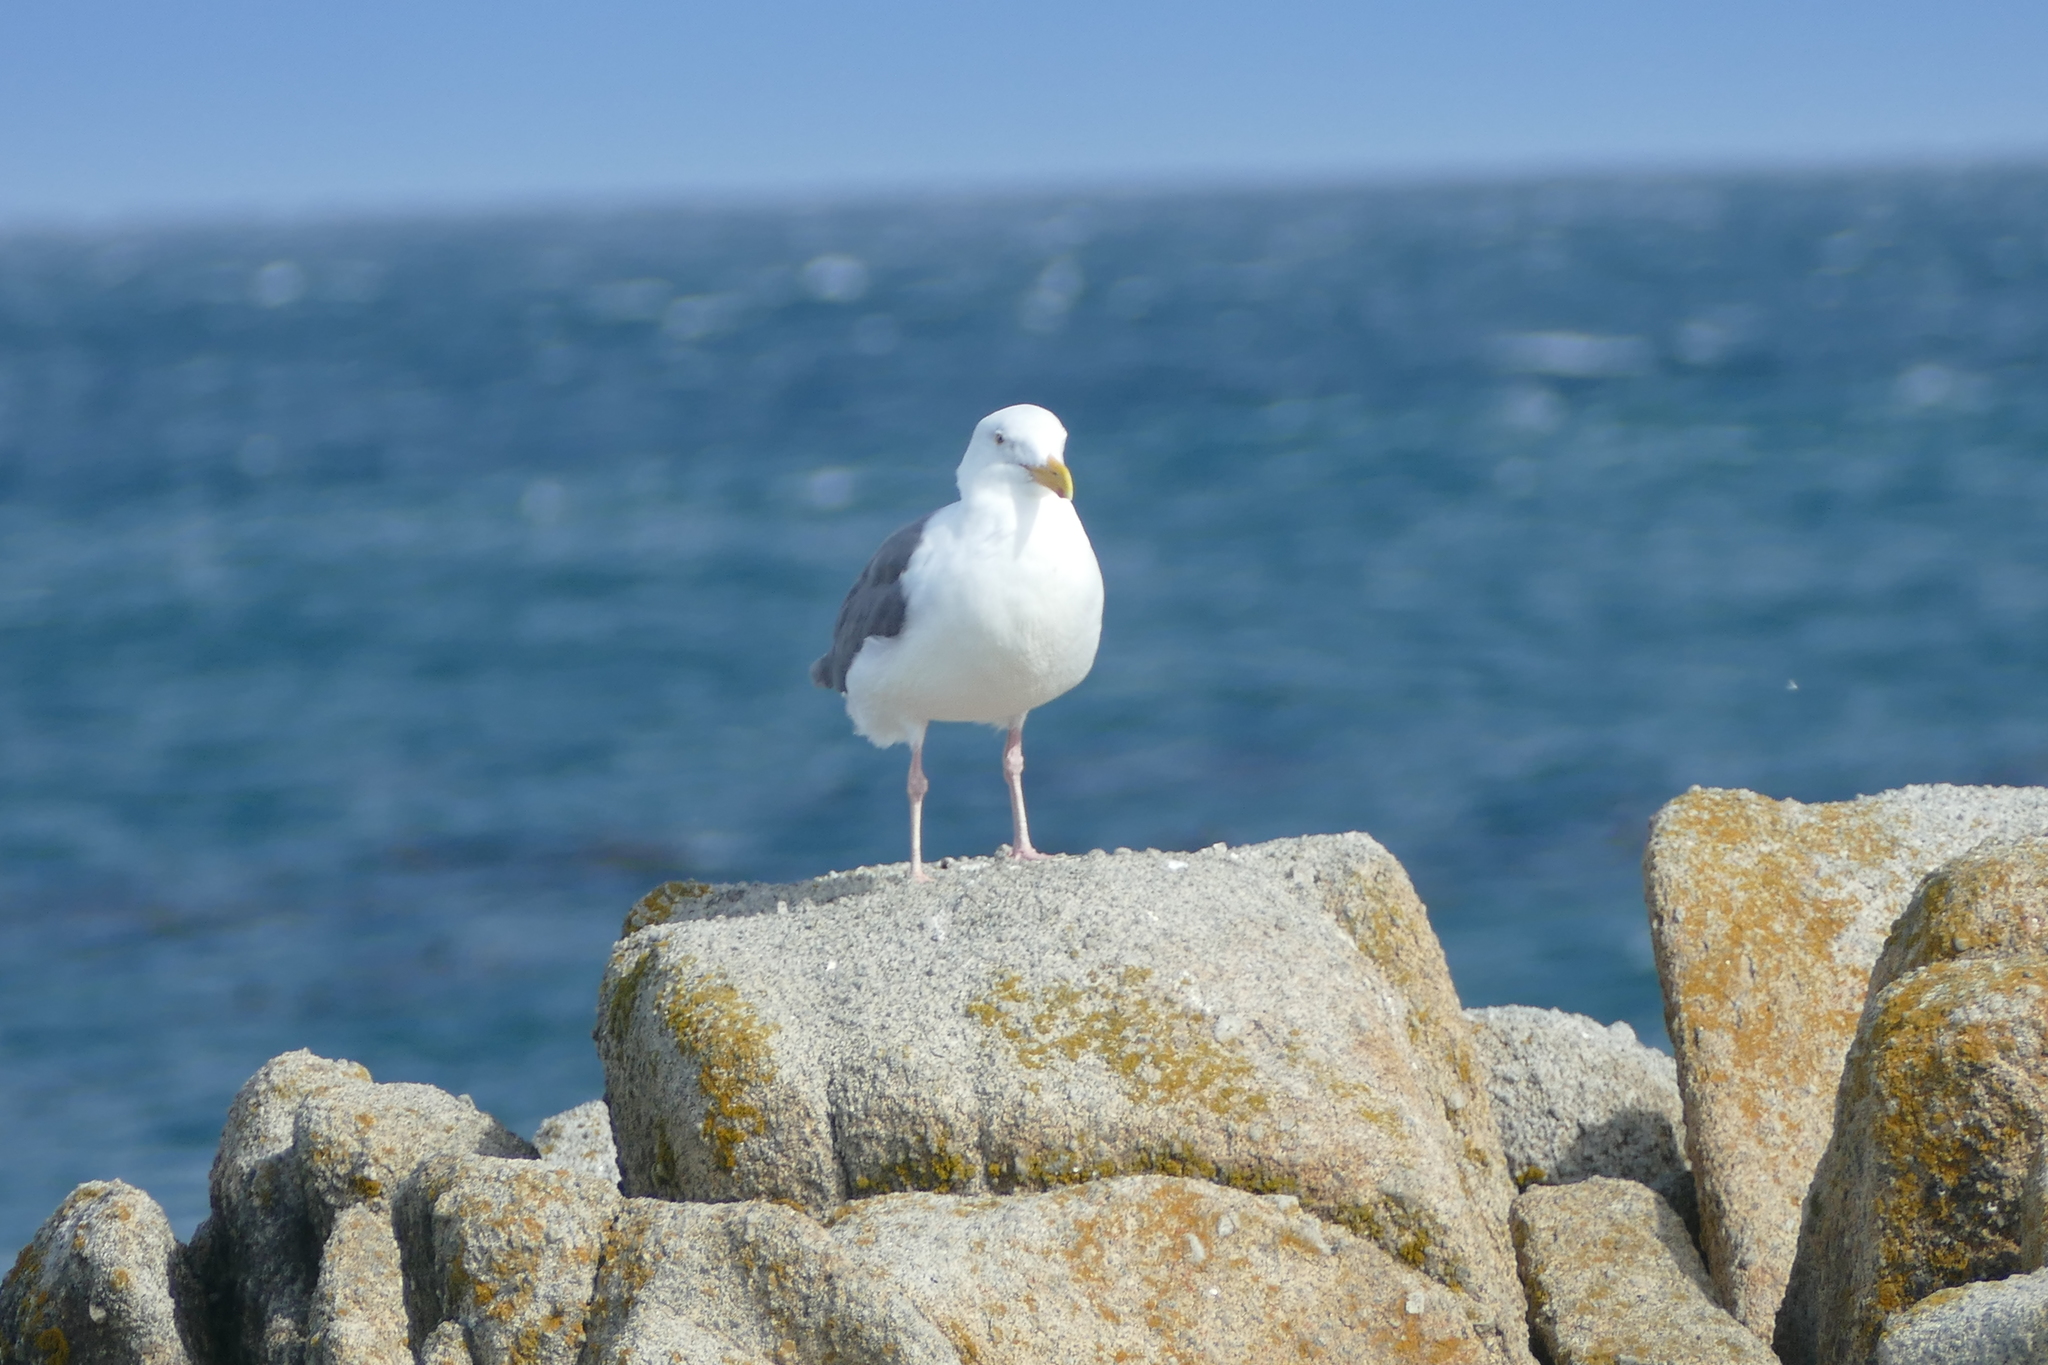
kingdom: Animalia
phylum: Chordata
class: Aves
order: Charadriiformes
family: Laridae
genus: Larus
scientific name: Larus occidentalis
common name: Western gull
